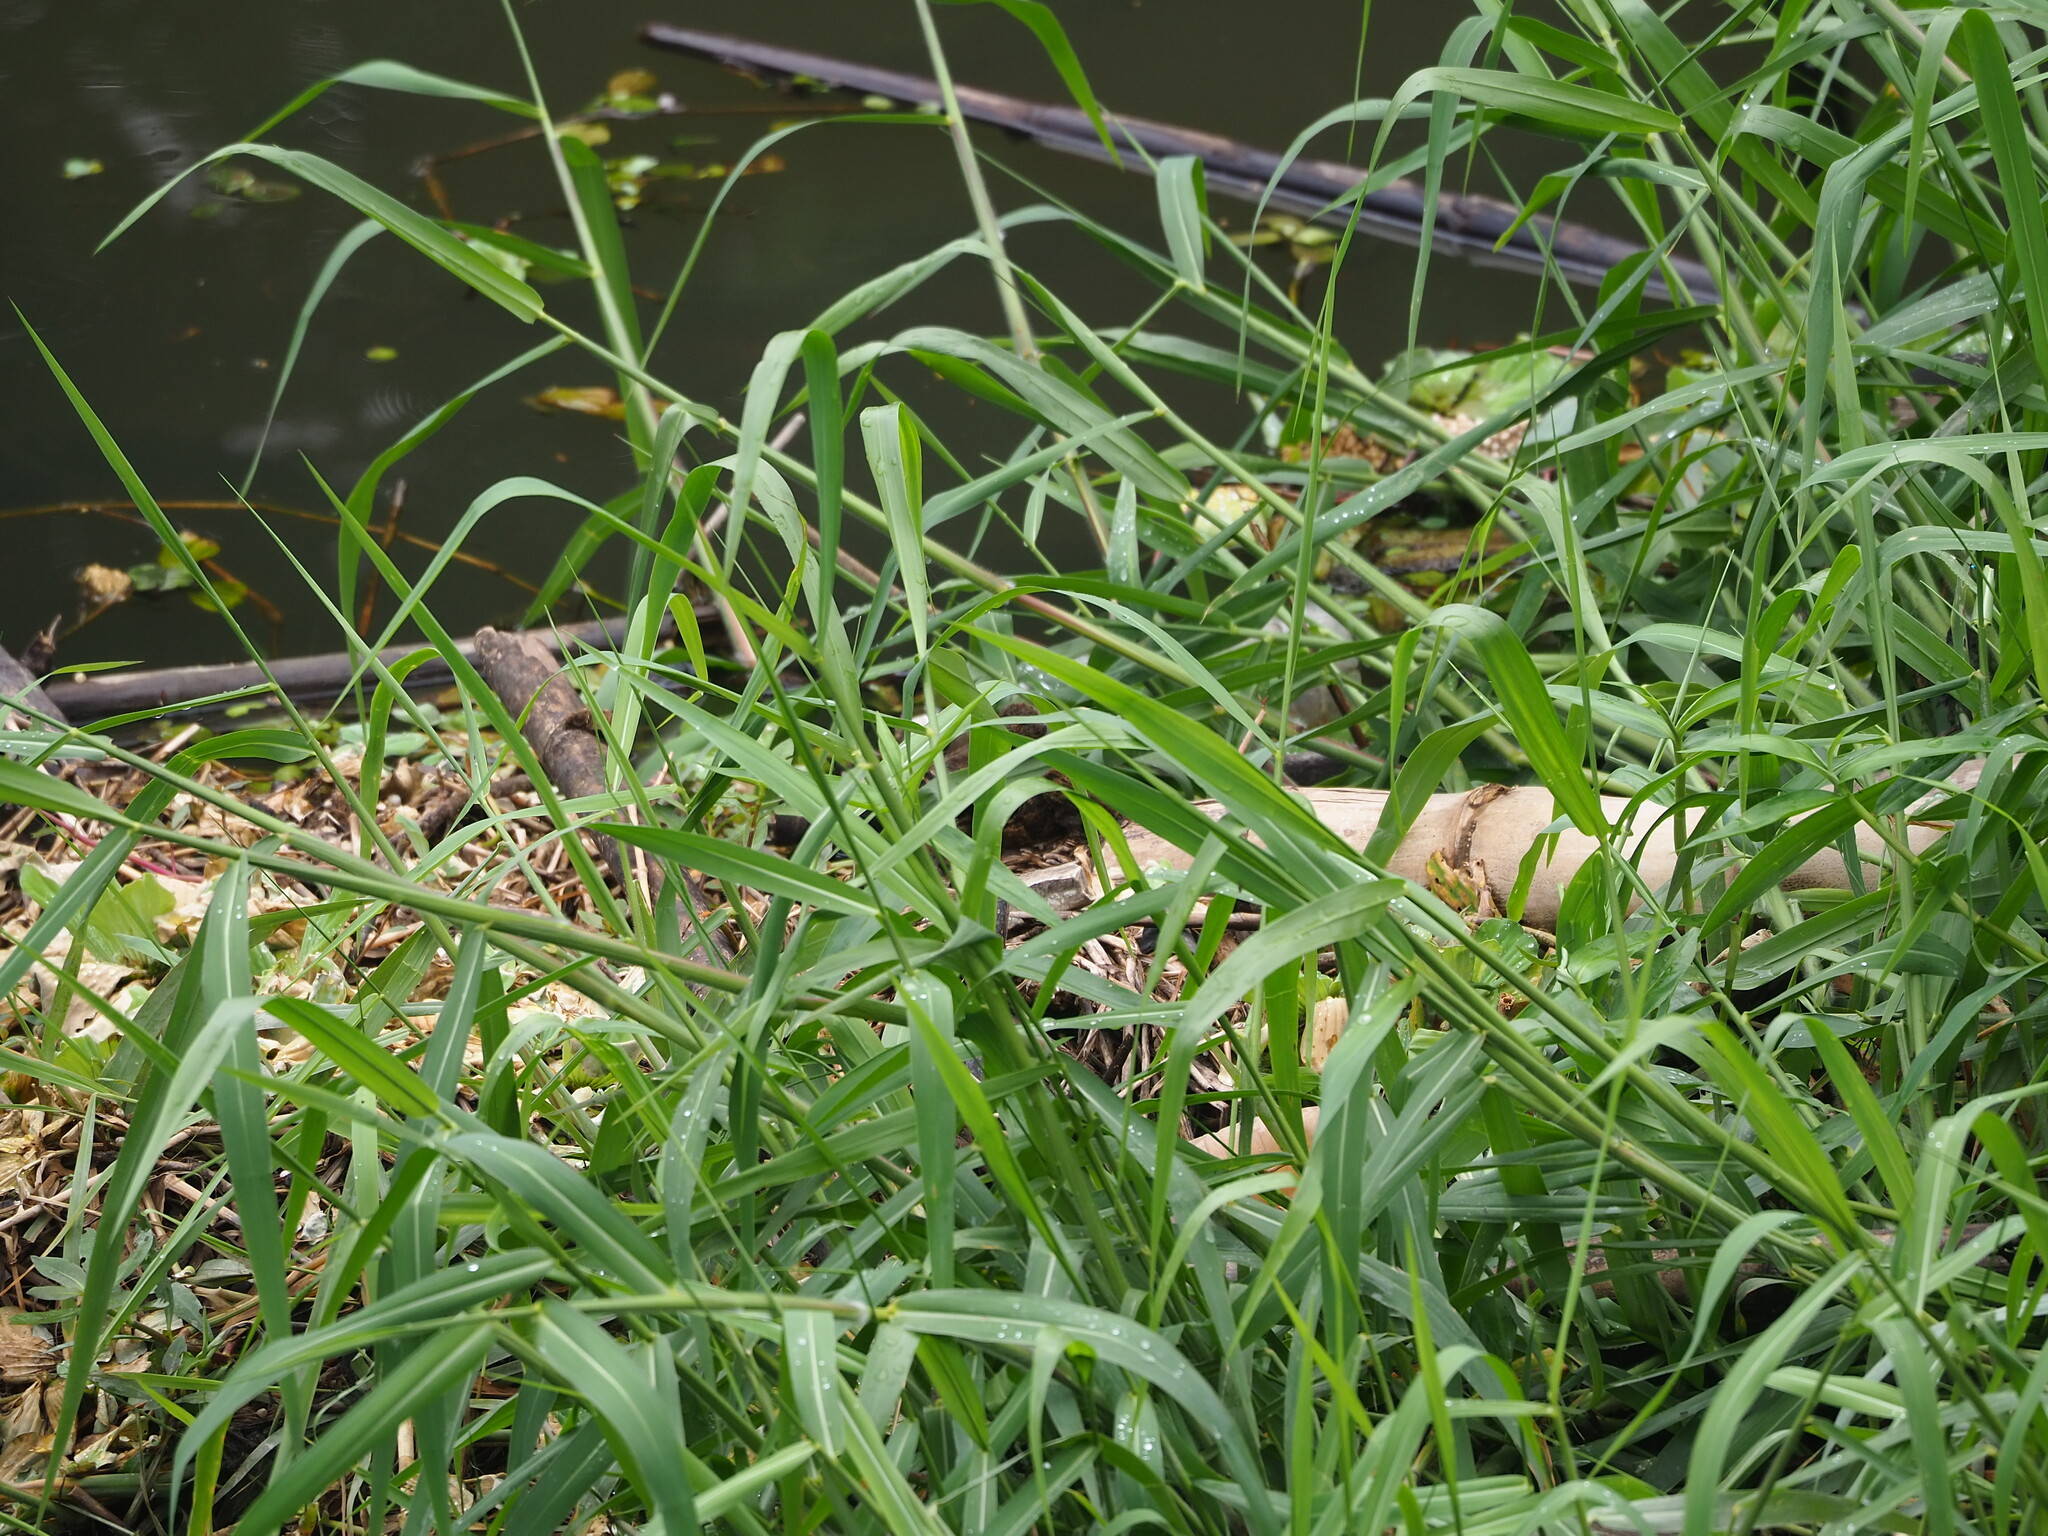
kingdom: Plantae
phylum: Tracheophyta
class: Liliopsida
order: Poales
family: Poaceae
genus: Urochloa
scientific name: Urochloa mutica
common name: Para grass
